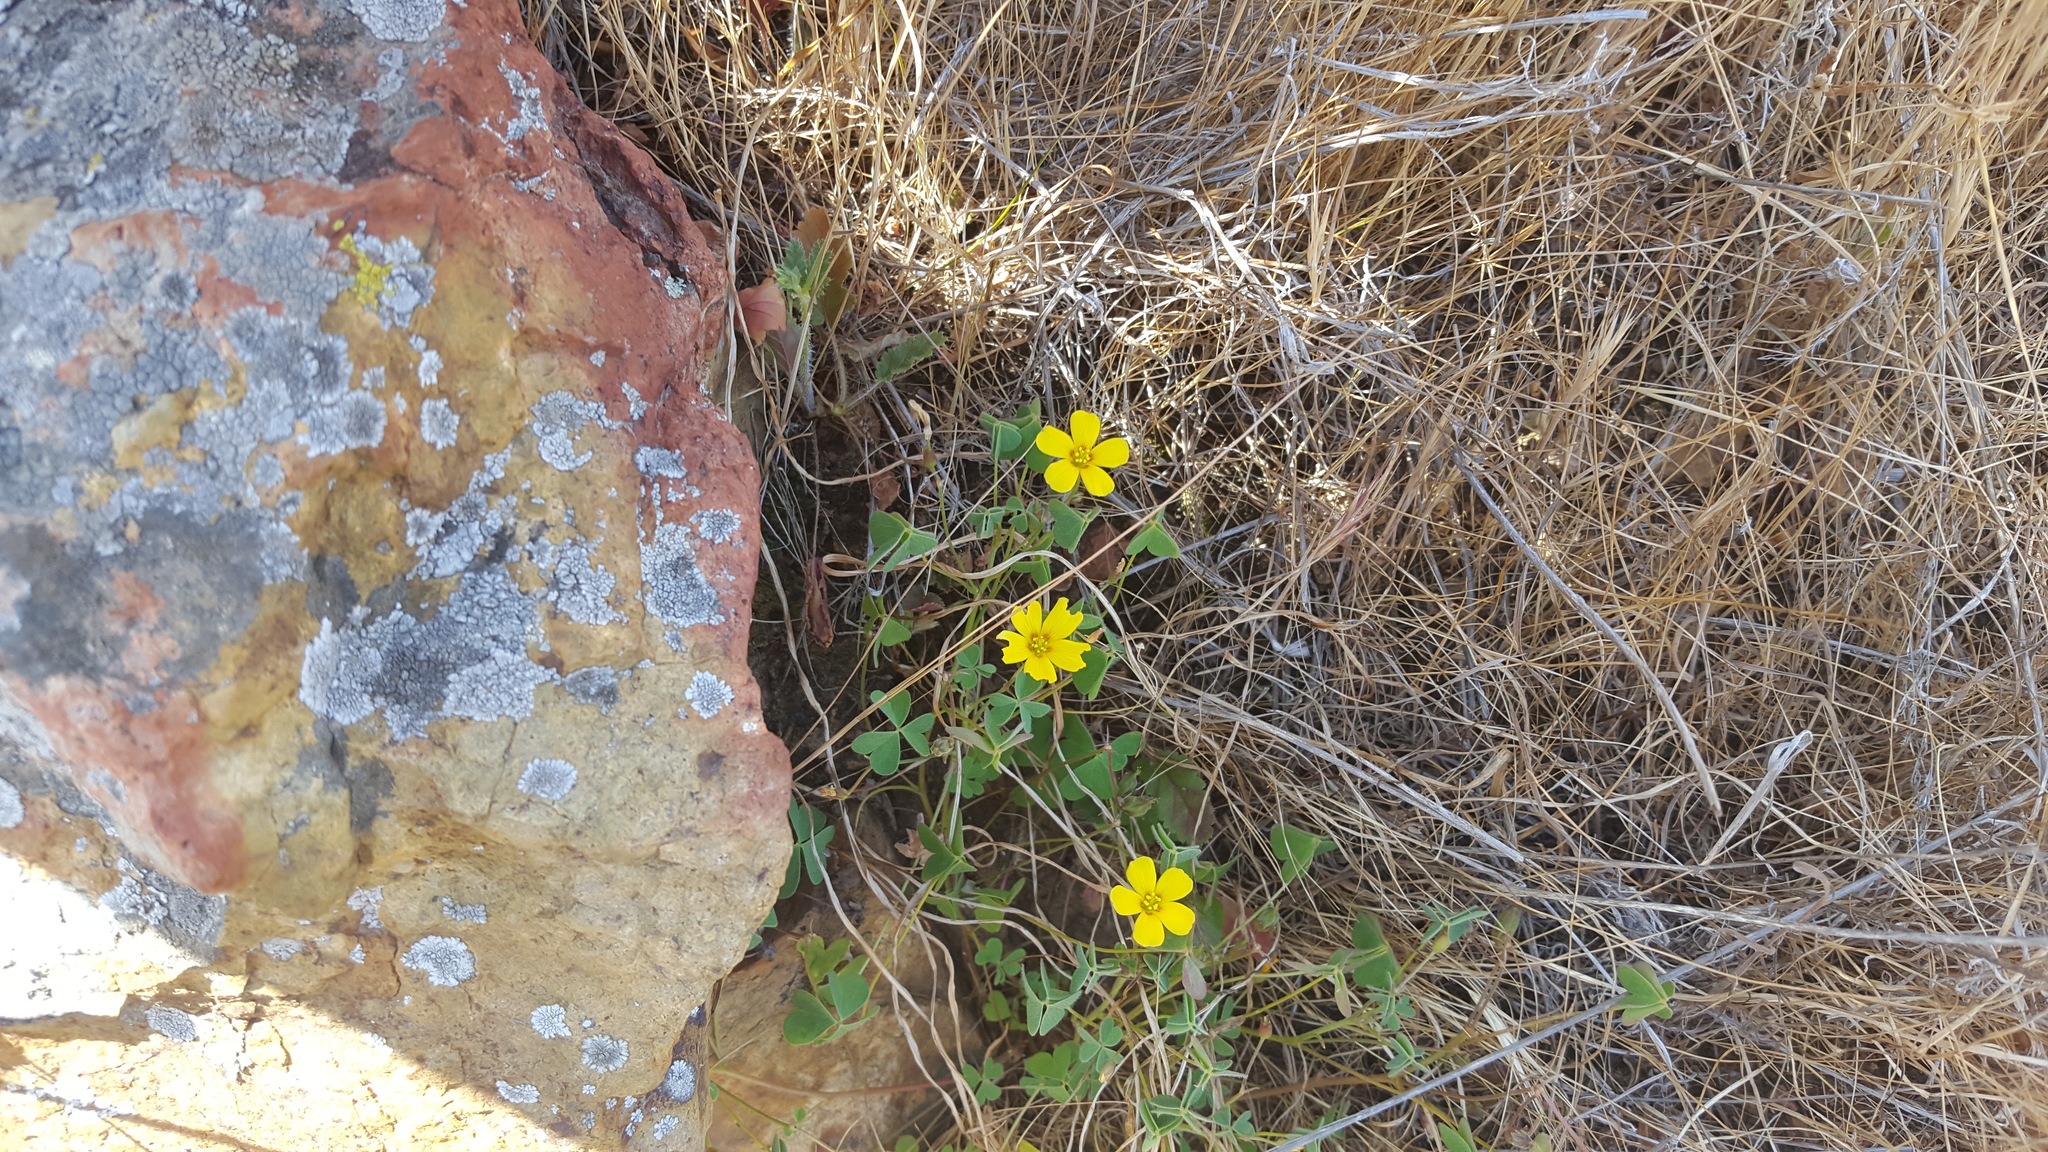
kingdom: Plantae
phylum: Tracheophyta
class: Magnoliopsida
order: Oxalidales
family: Oxalidaceae
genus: Oxalis
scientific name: Oxalis californica
